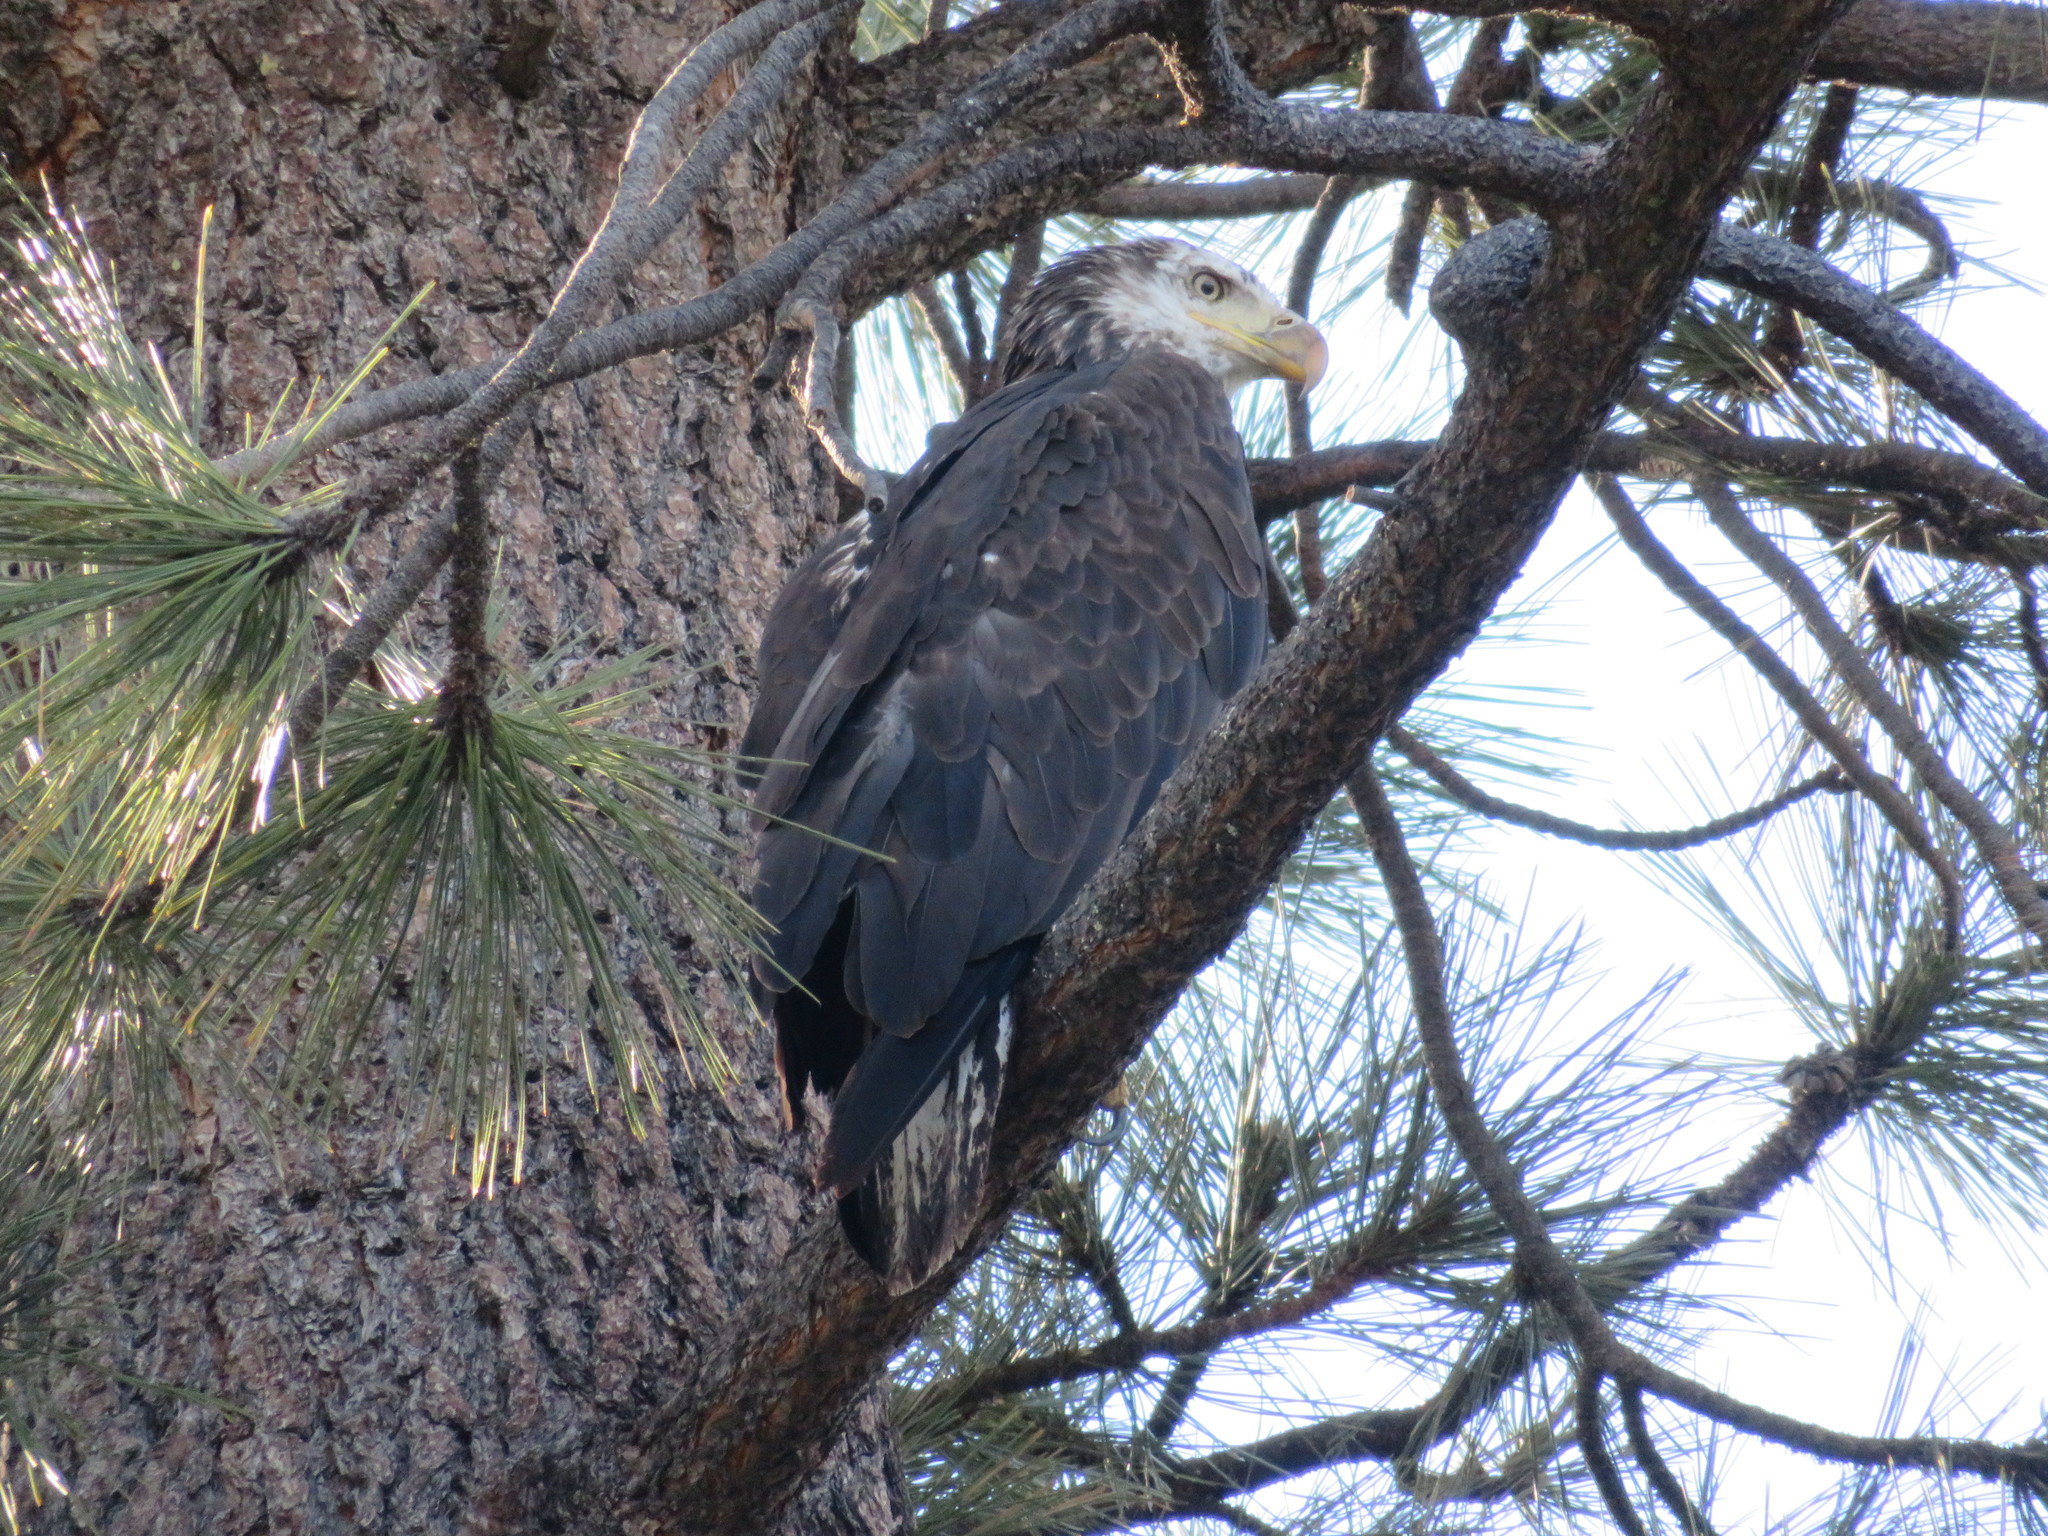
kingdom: Animalia
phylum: Chordata
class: Aves
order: Accipitriformes
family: Accipitridae
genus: Haliaeetus
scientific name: Haliaeetus leucocephalus
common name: Bald eagle
